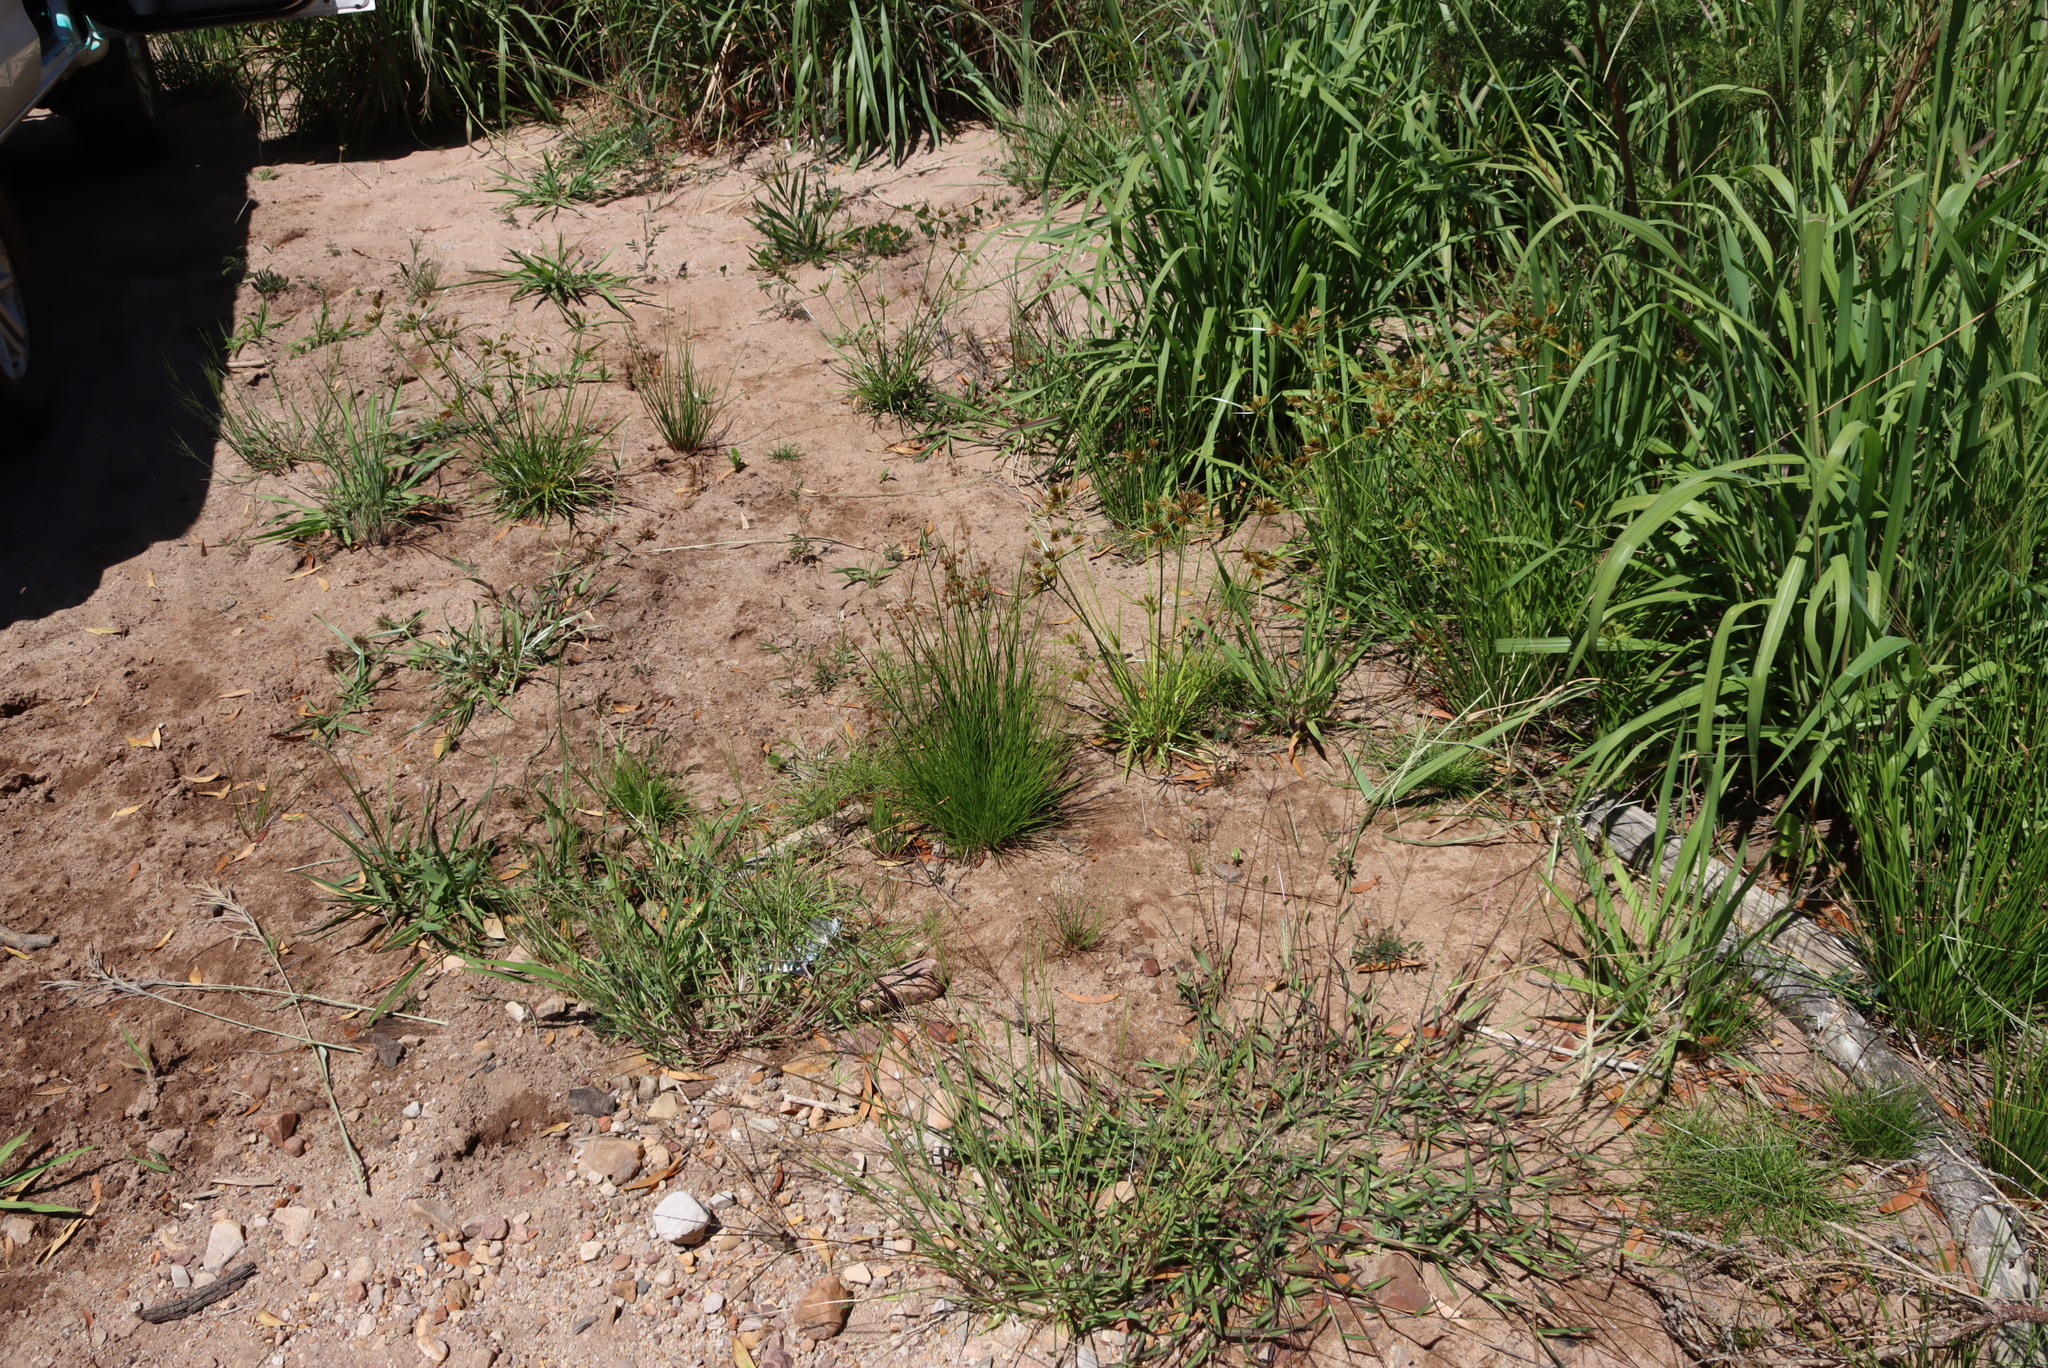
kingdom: Plantae
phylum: Tracheophyta
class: Liliopsida
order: Poales
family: Cyperaceae
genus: Cyperus
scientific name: Cyperus polystachyos
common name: Bunchy flat sedge
